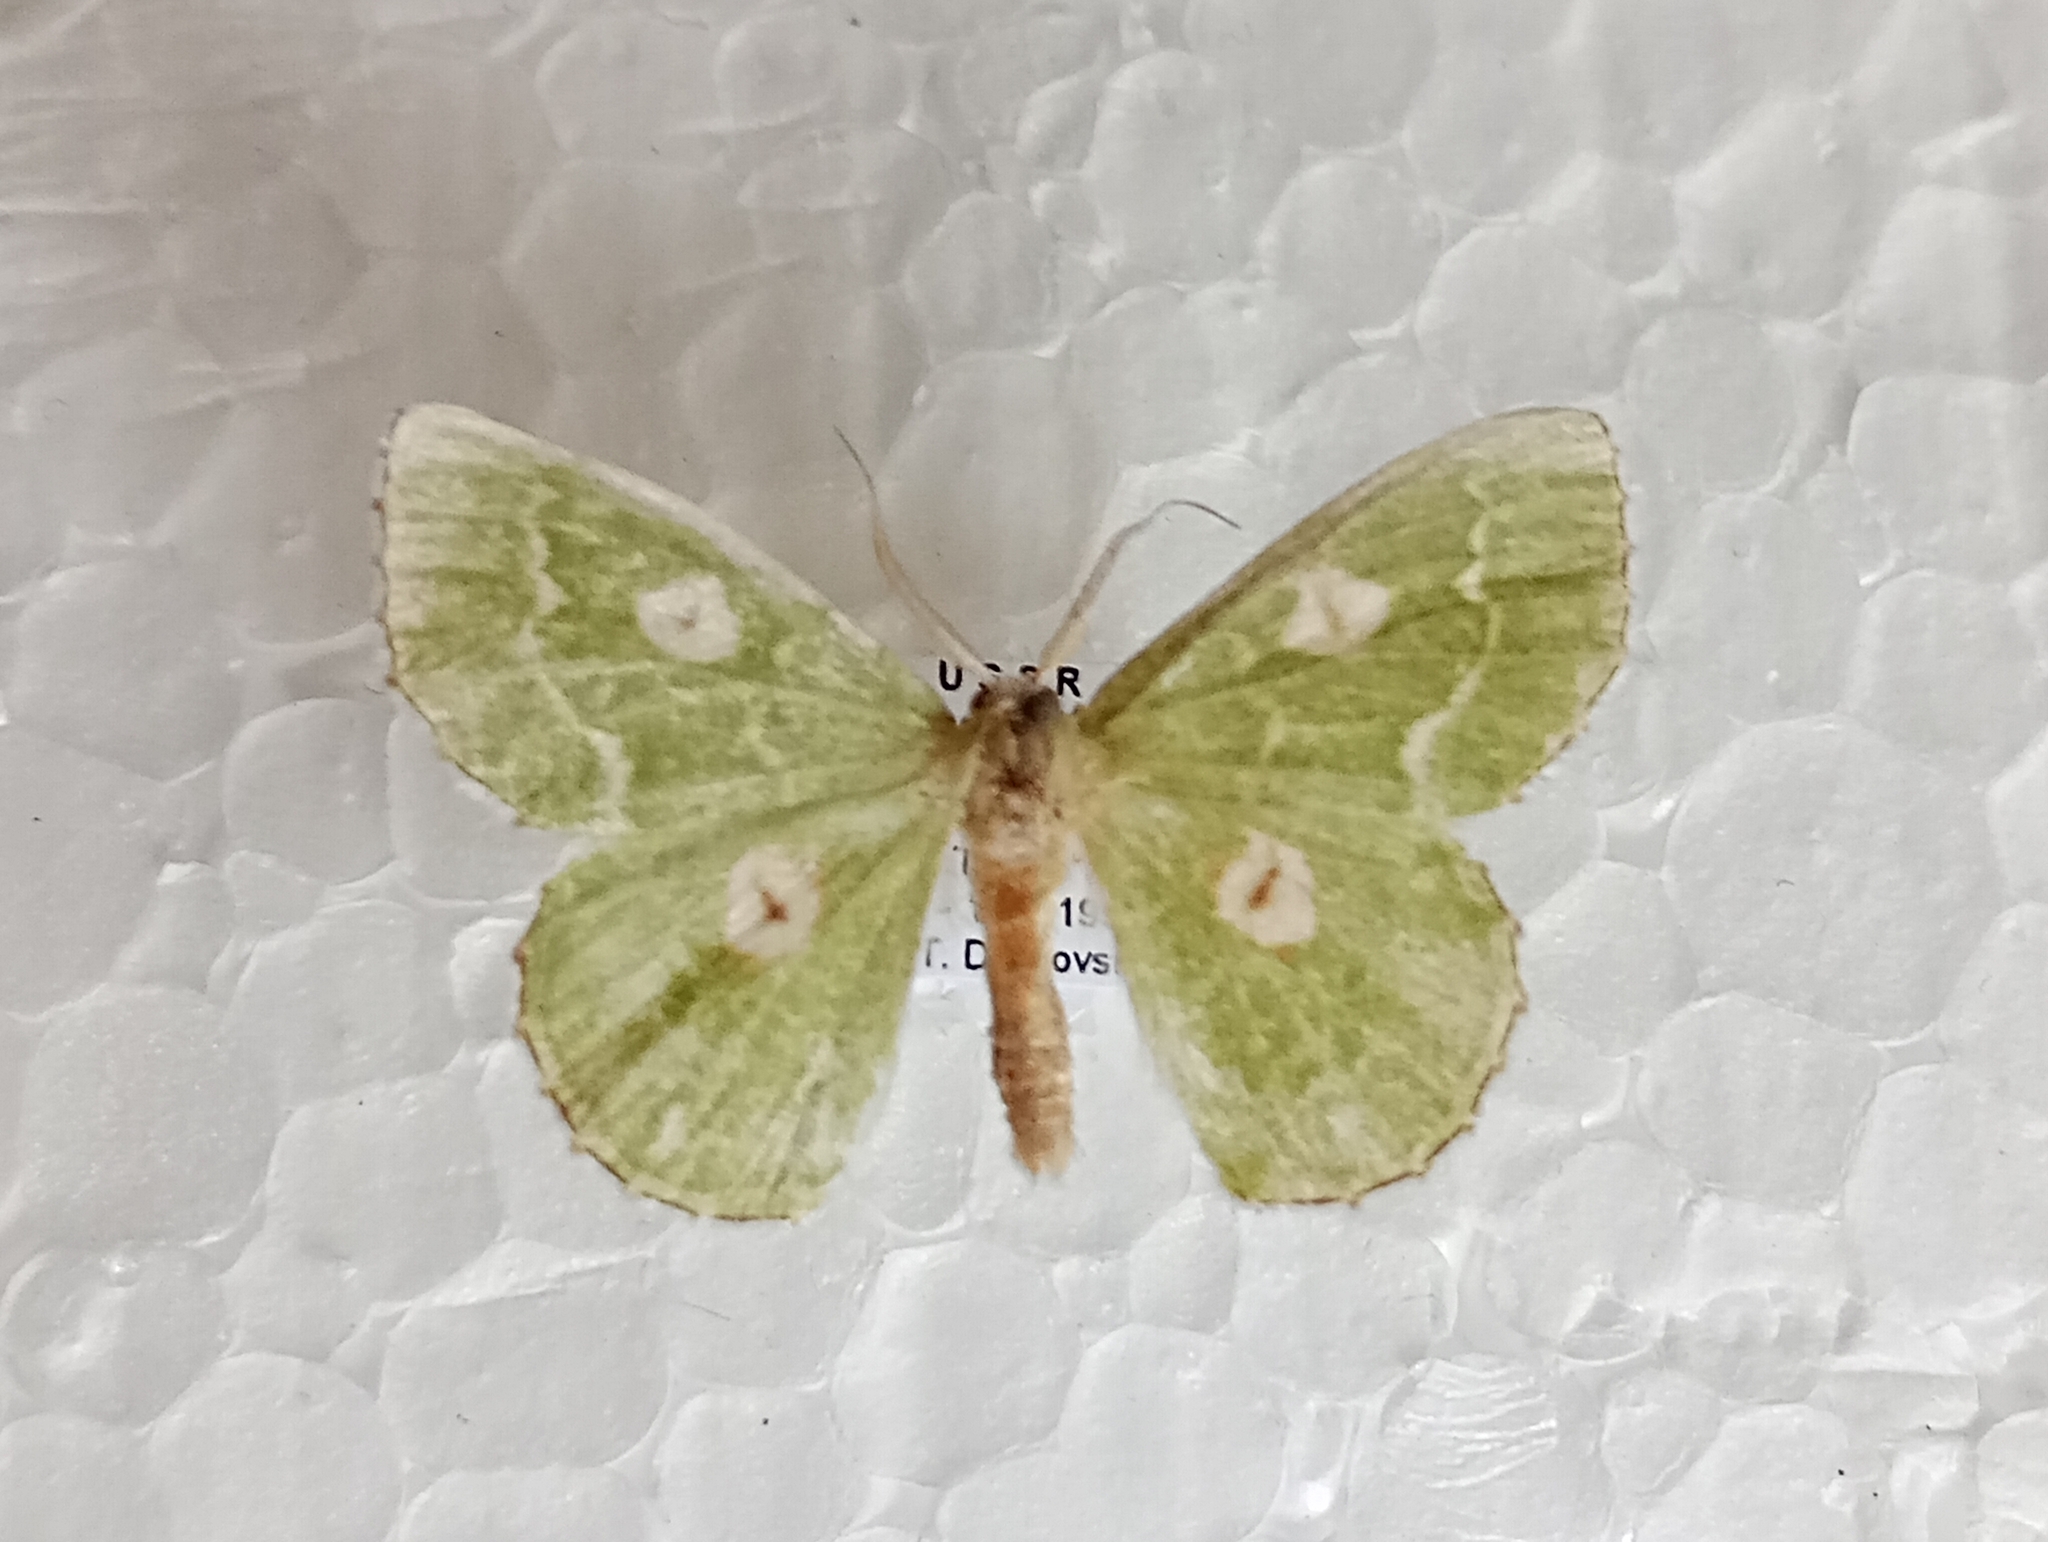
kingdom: Animalia
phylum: Arthropoda
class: Insecta
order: Lepidoptera
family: Geometridae
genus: Thetidia
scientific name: Thetidia albocostaria
